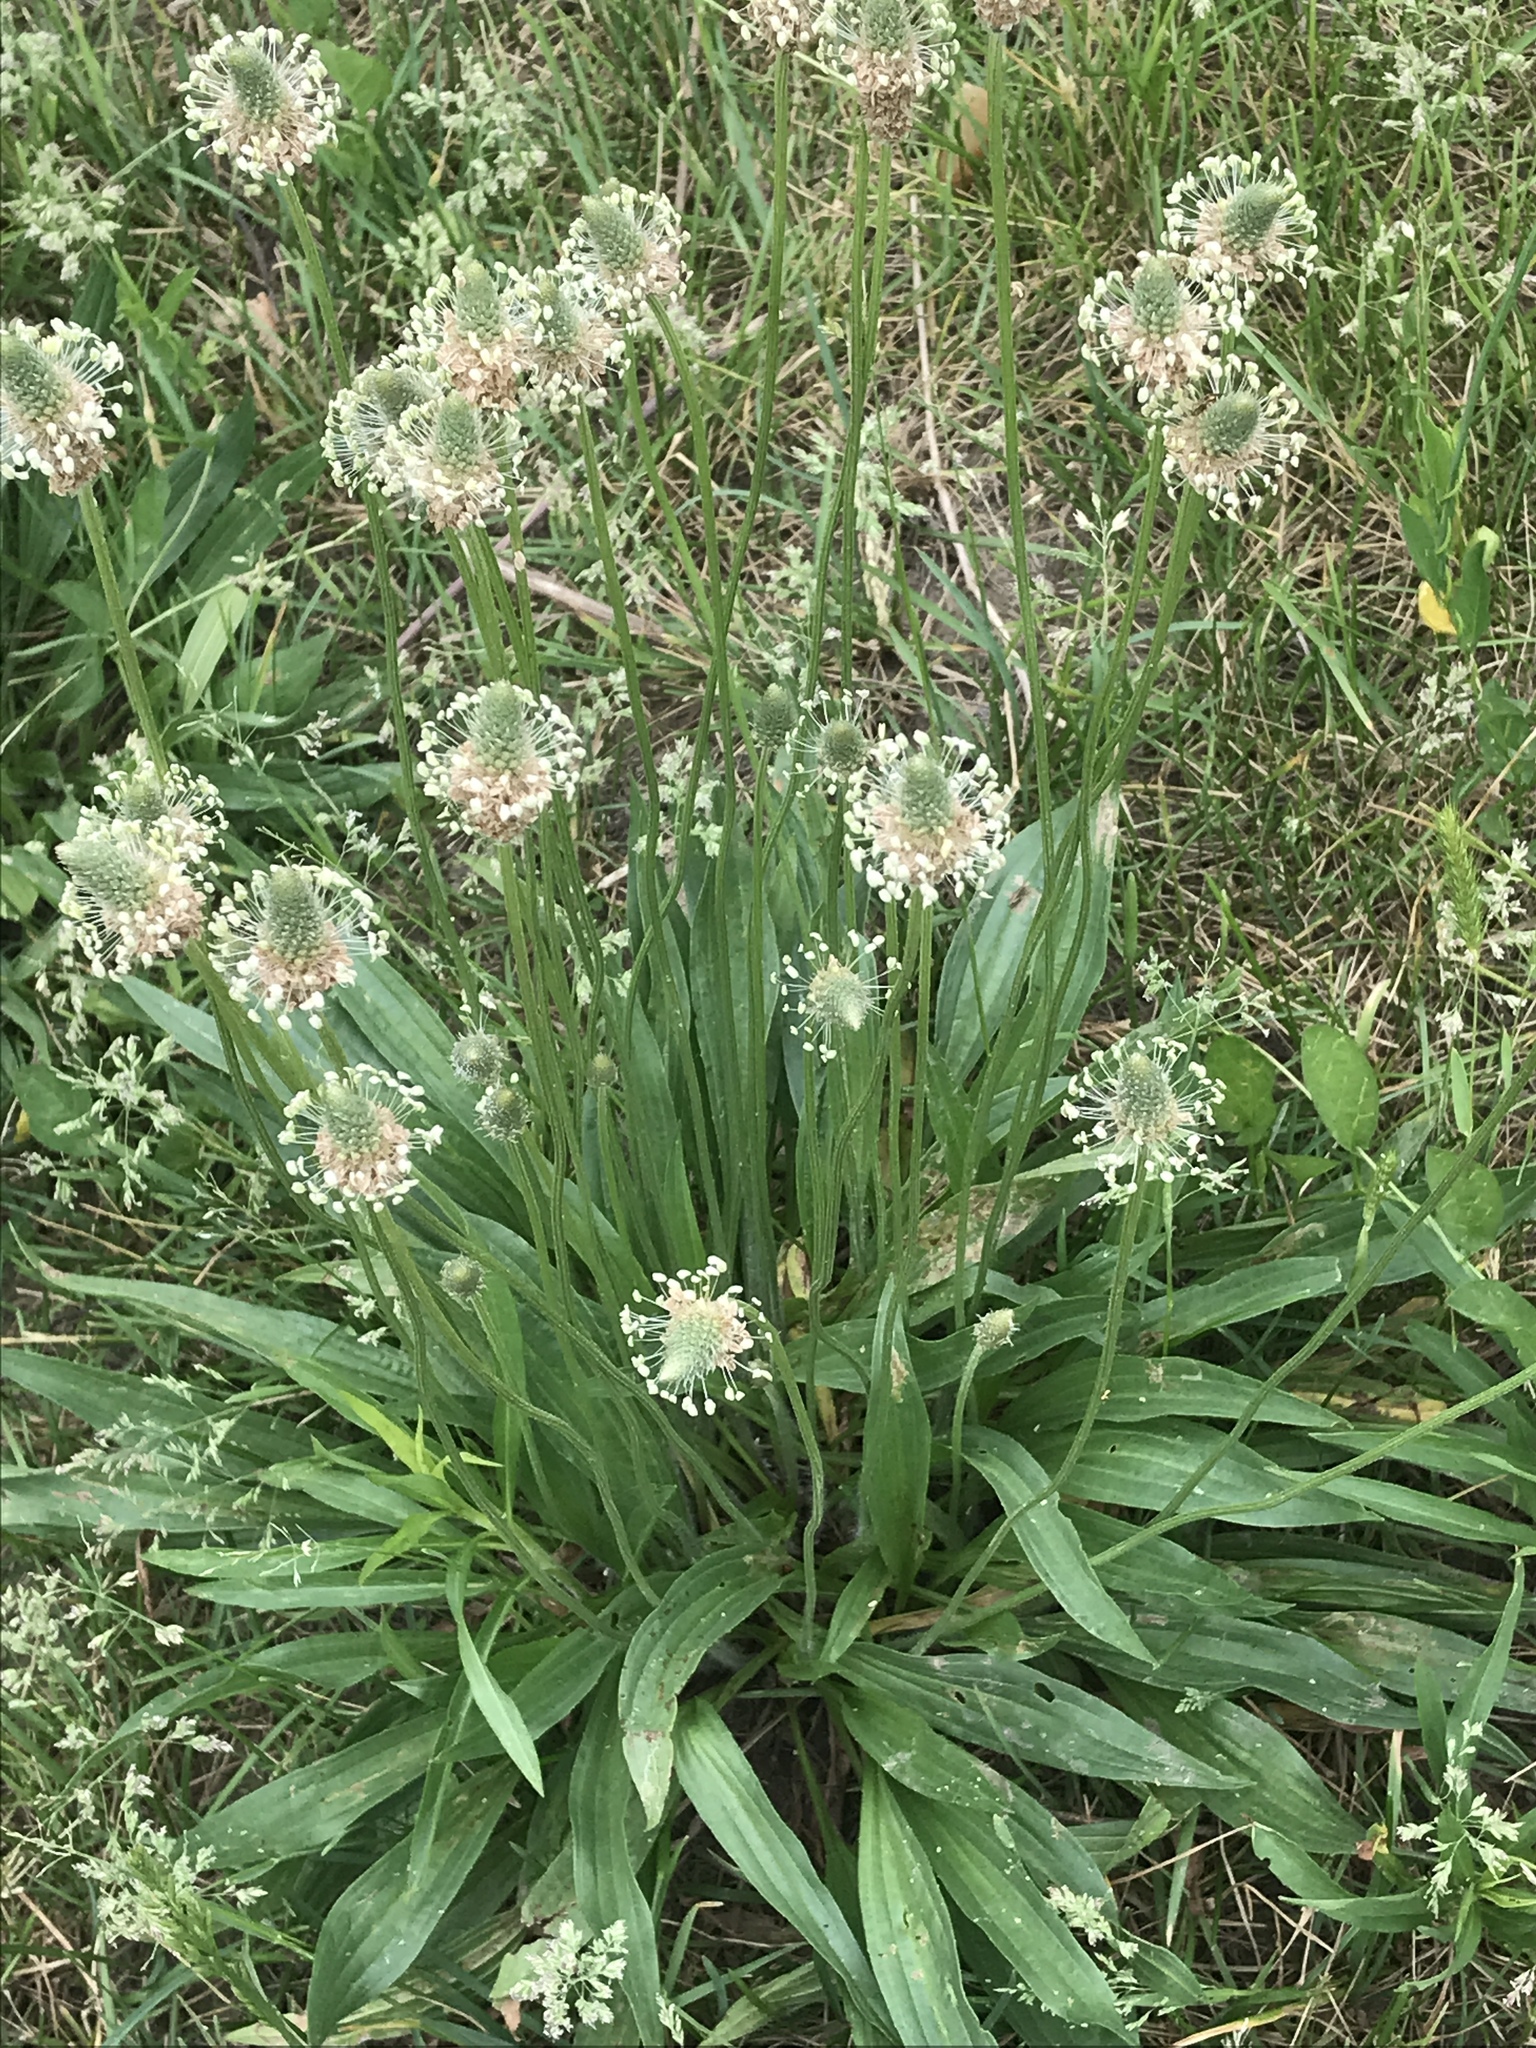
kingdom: Plantae
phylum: Tracheophyta
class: Magnoliopsida
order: Lamiales
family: Plantaginaceae
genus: Plantago
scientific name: Plantago lanceolata
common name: Ribwort plantain
